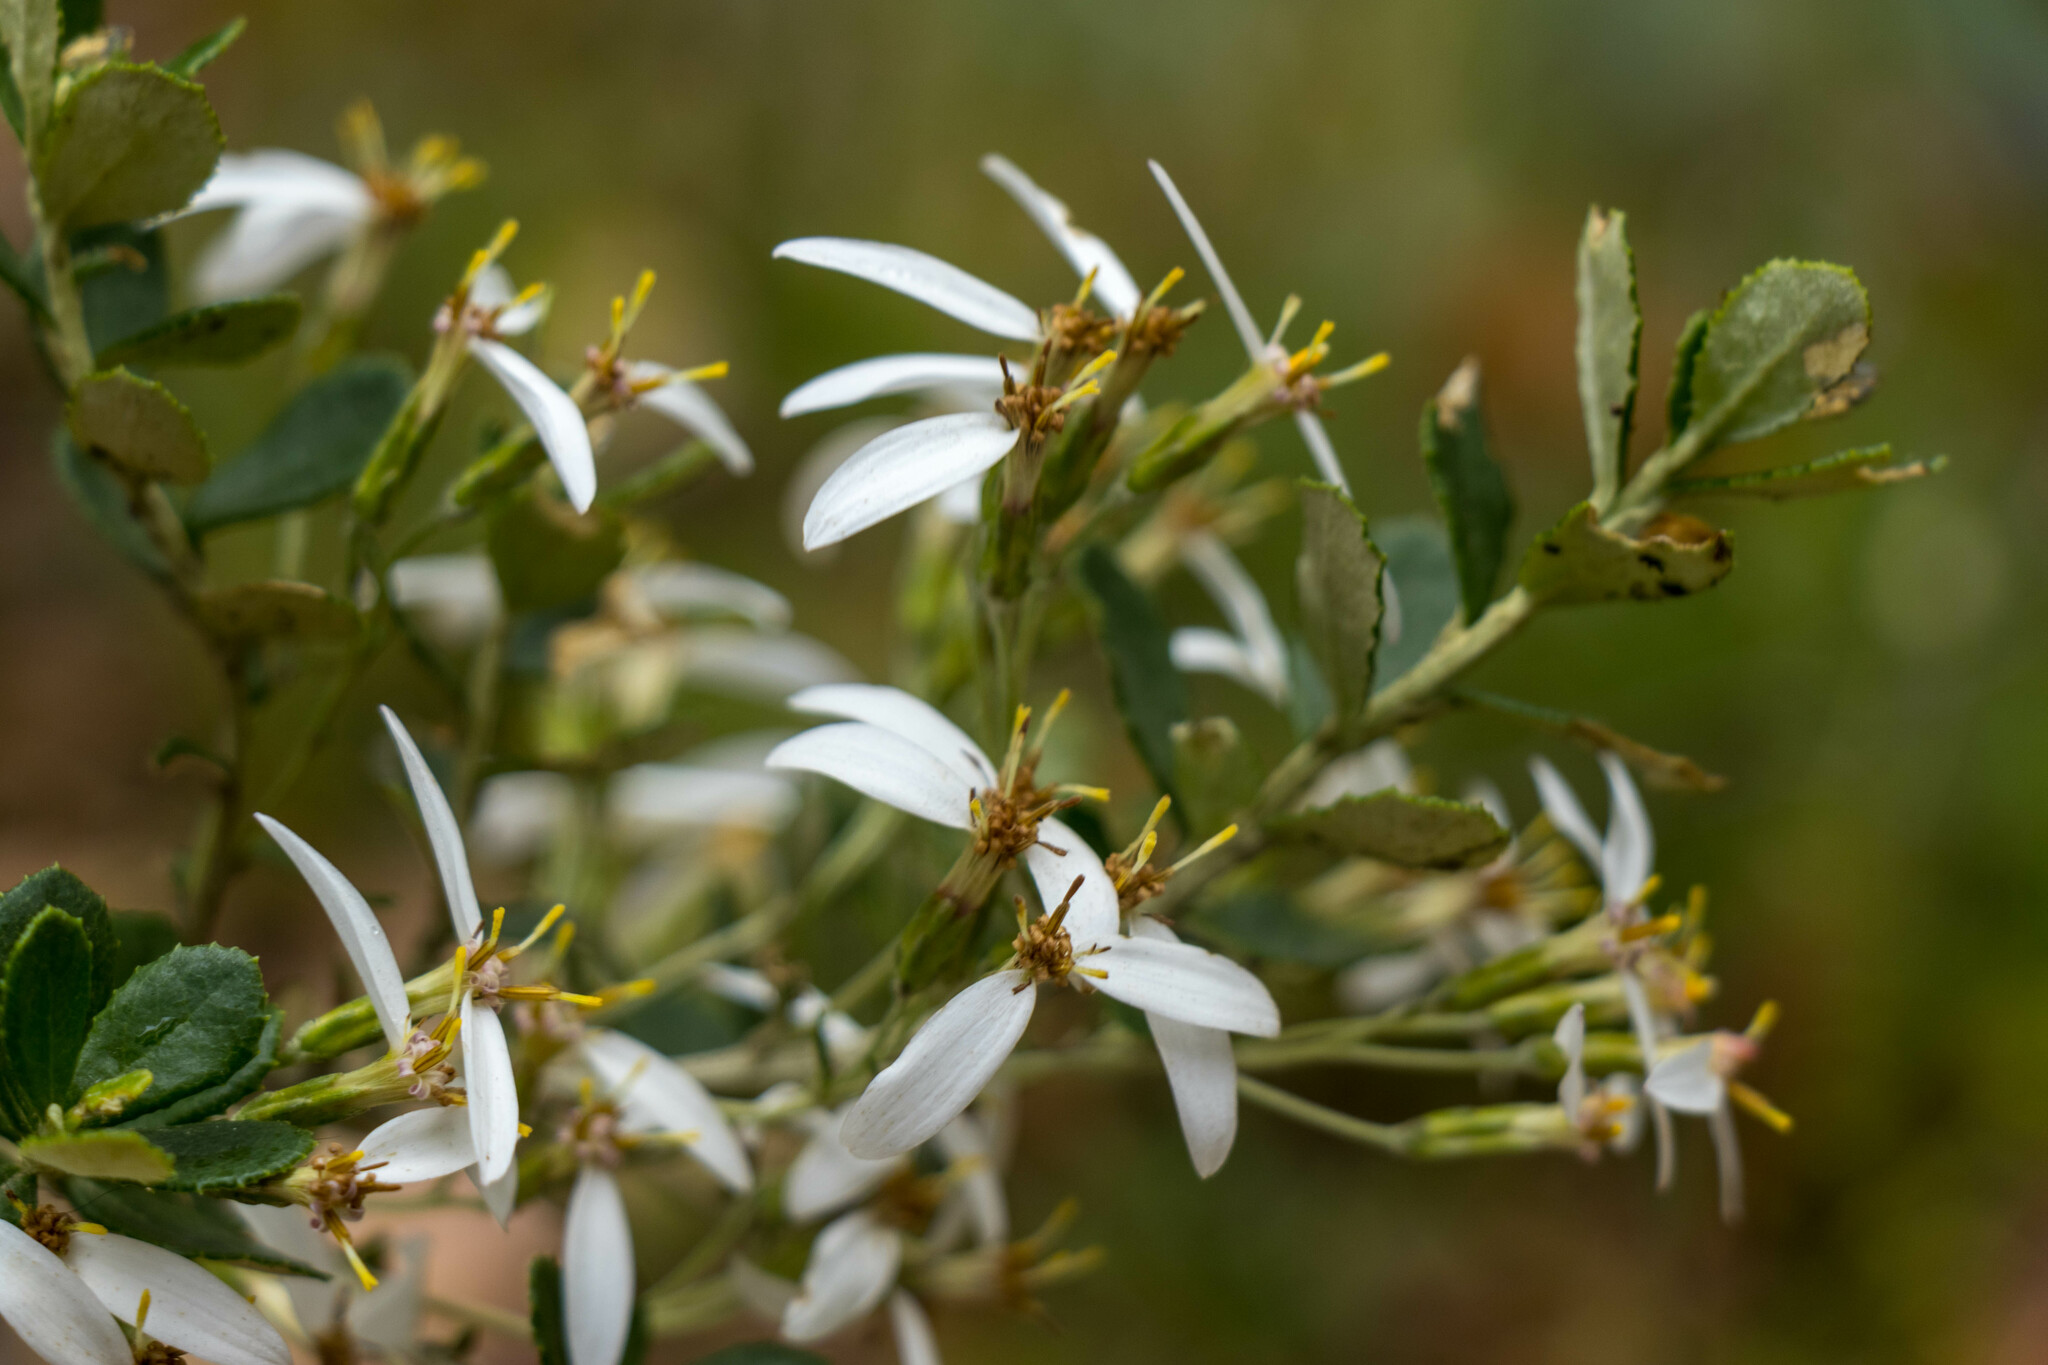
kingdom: Plantae
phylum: Tracheophyta
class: Magnoliopsida
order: Asterales
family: Asteraceae
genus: Olearia
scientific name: Olearia myrsinoides
